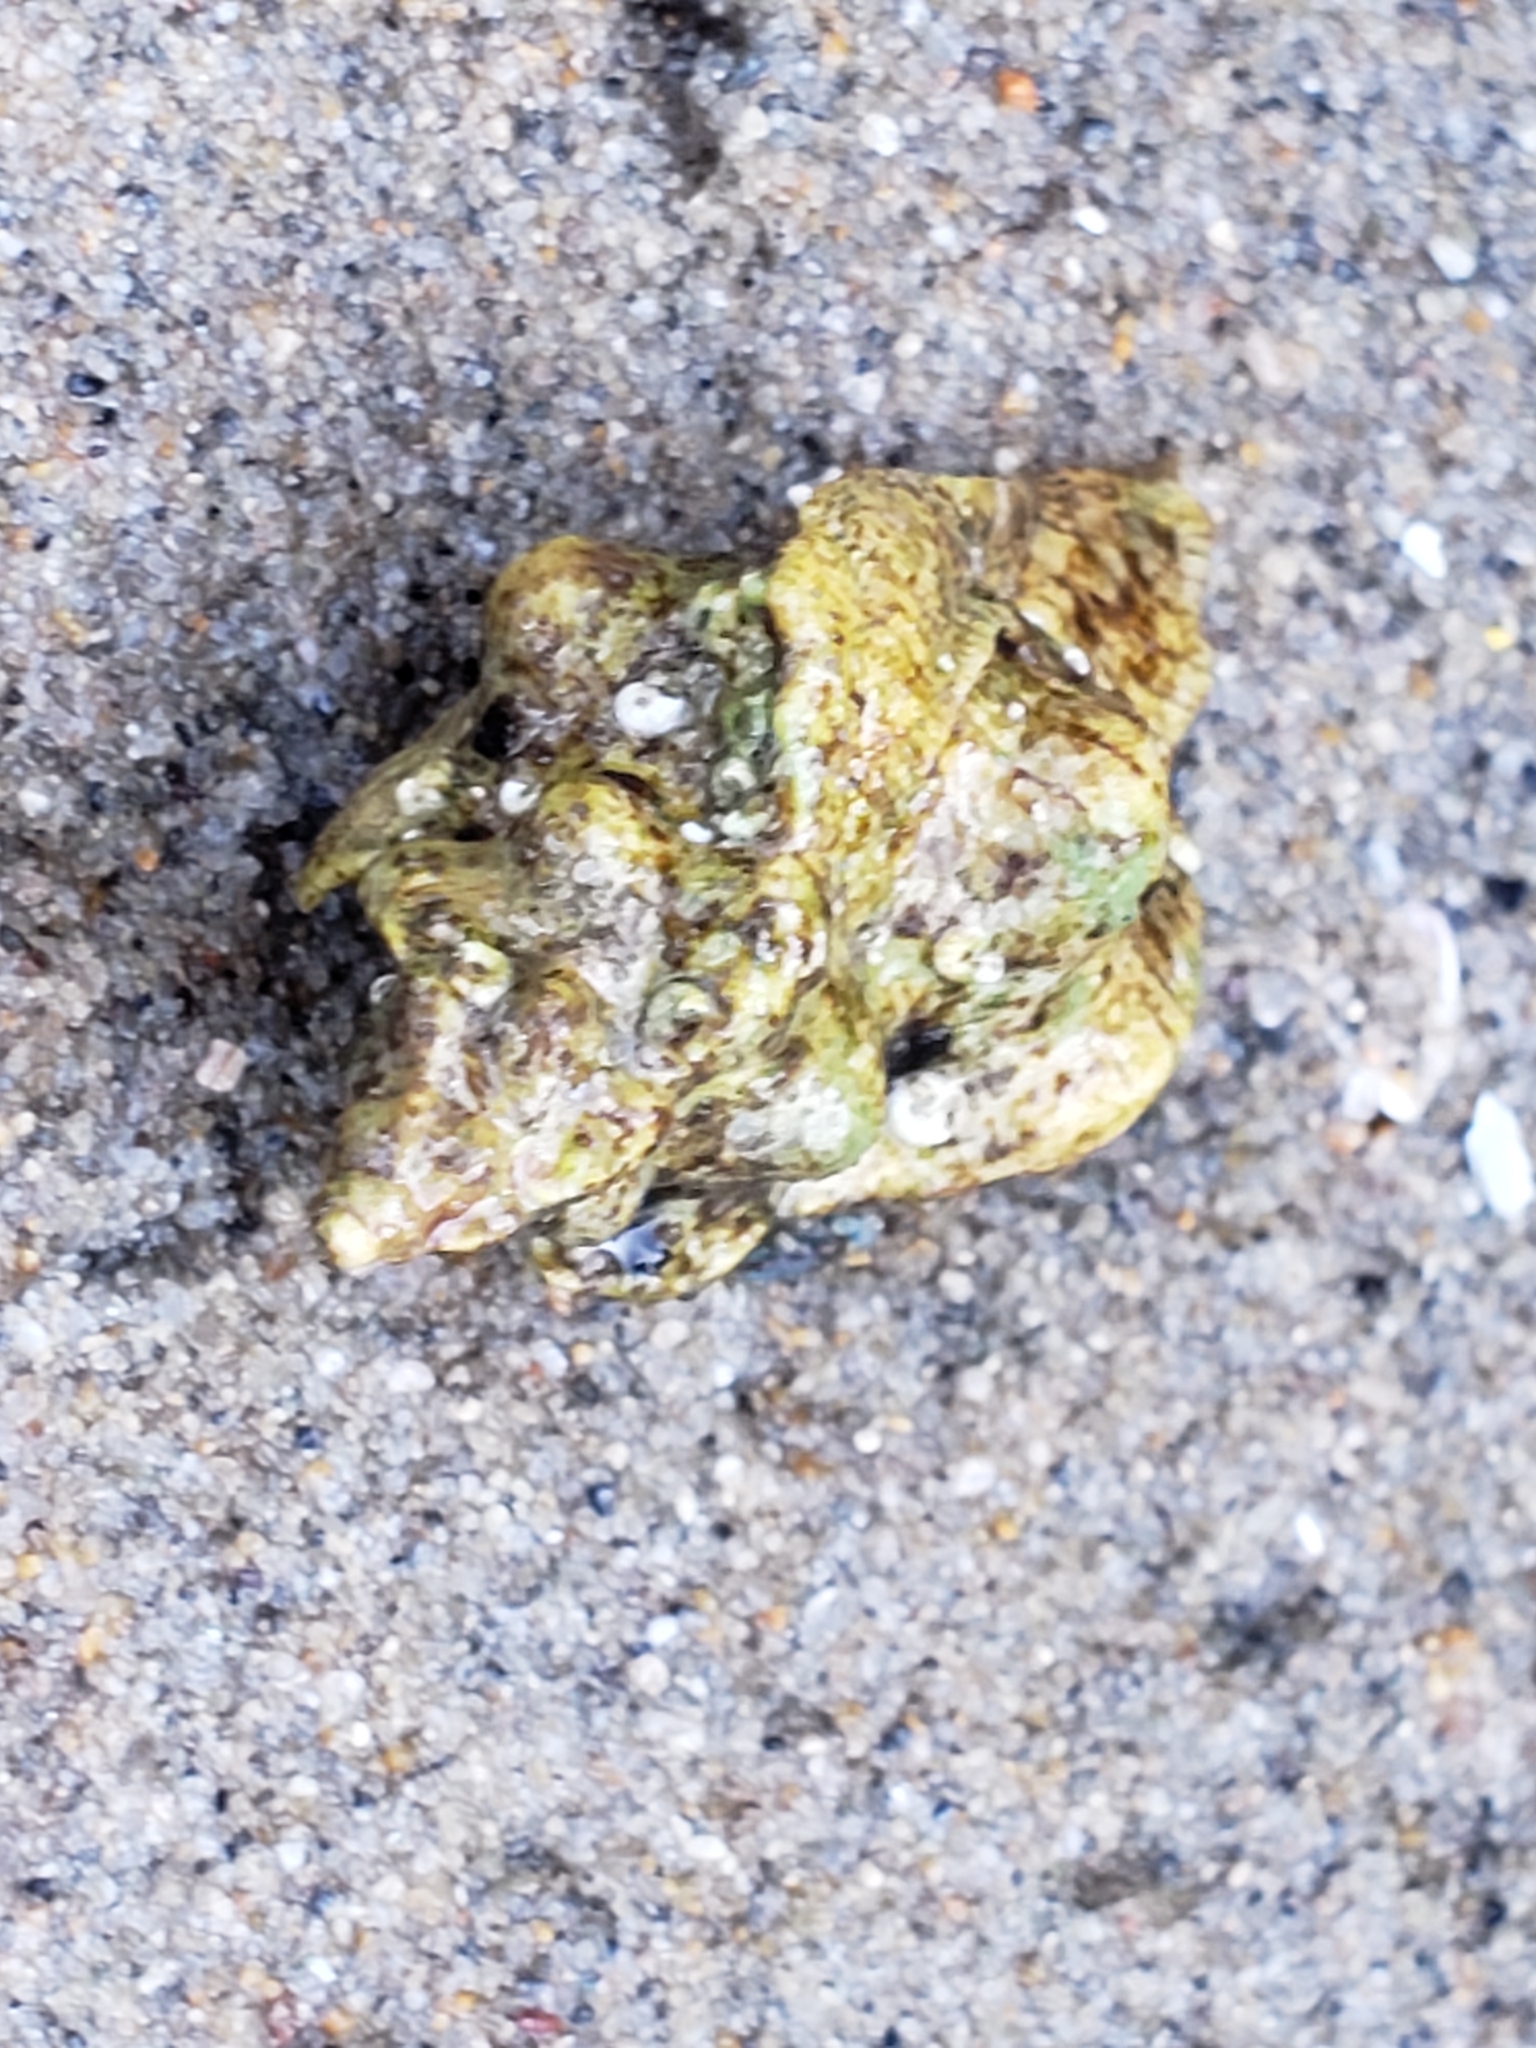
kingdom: Animalia
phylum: Mollusca
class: Gastropoda
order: Neogastropoda
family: Muricidae
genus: Pteropurpura
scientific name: Pteropurpura festiva
